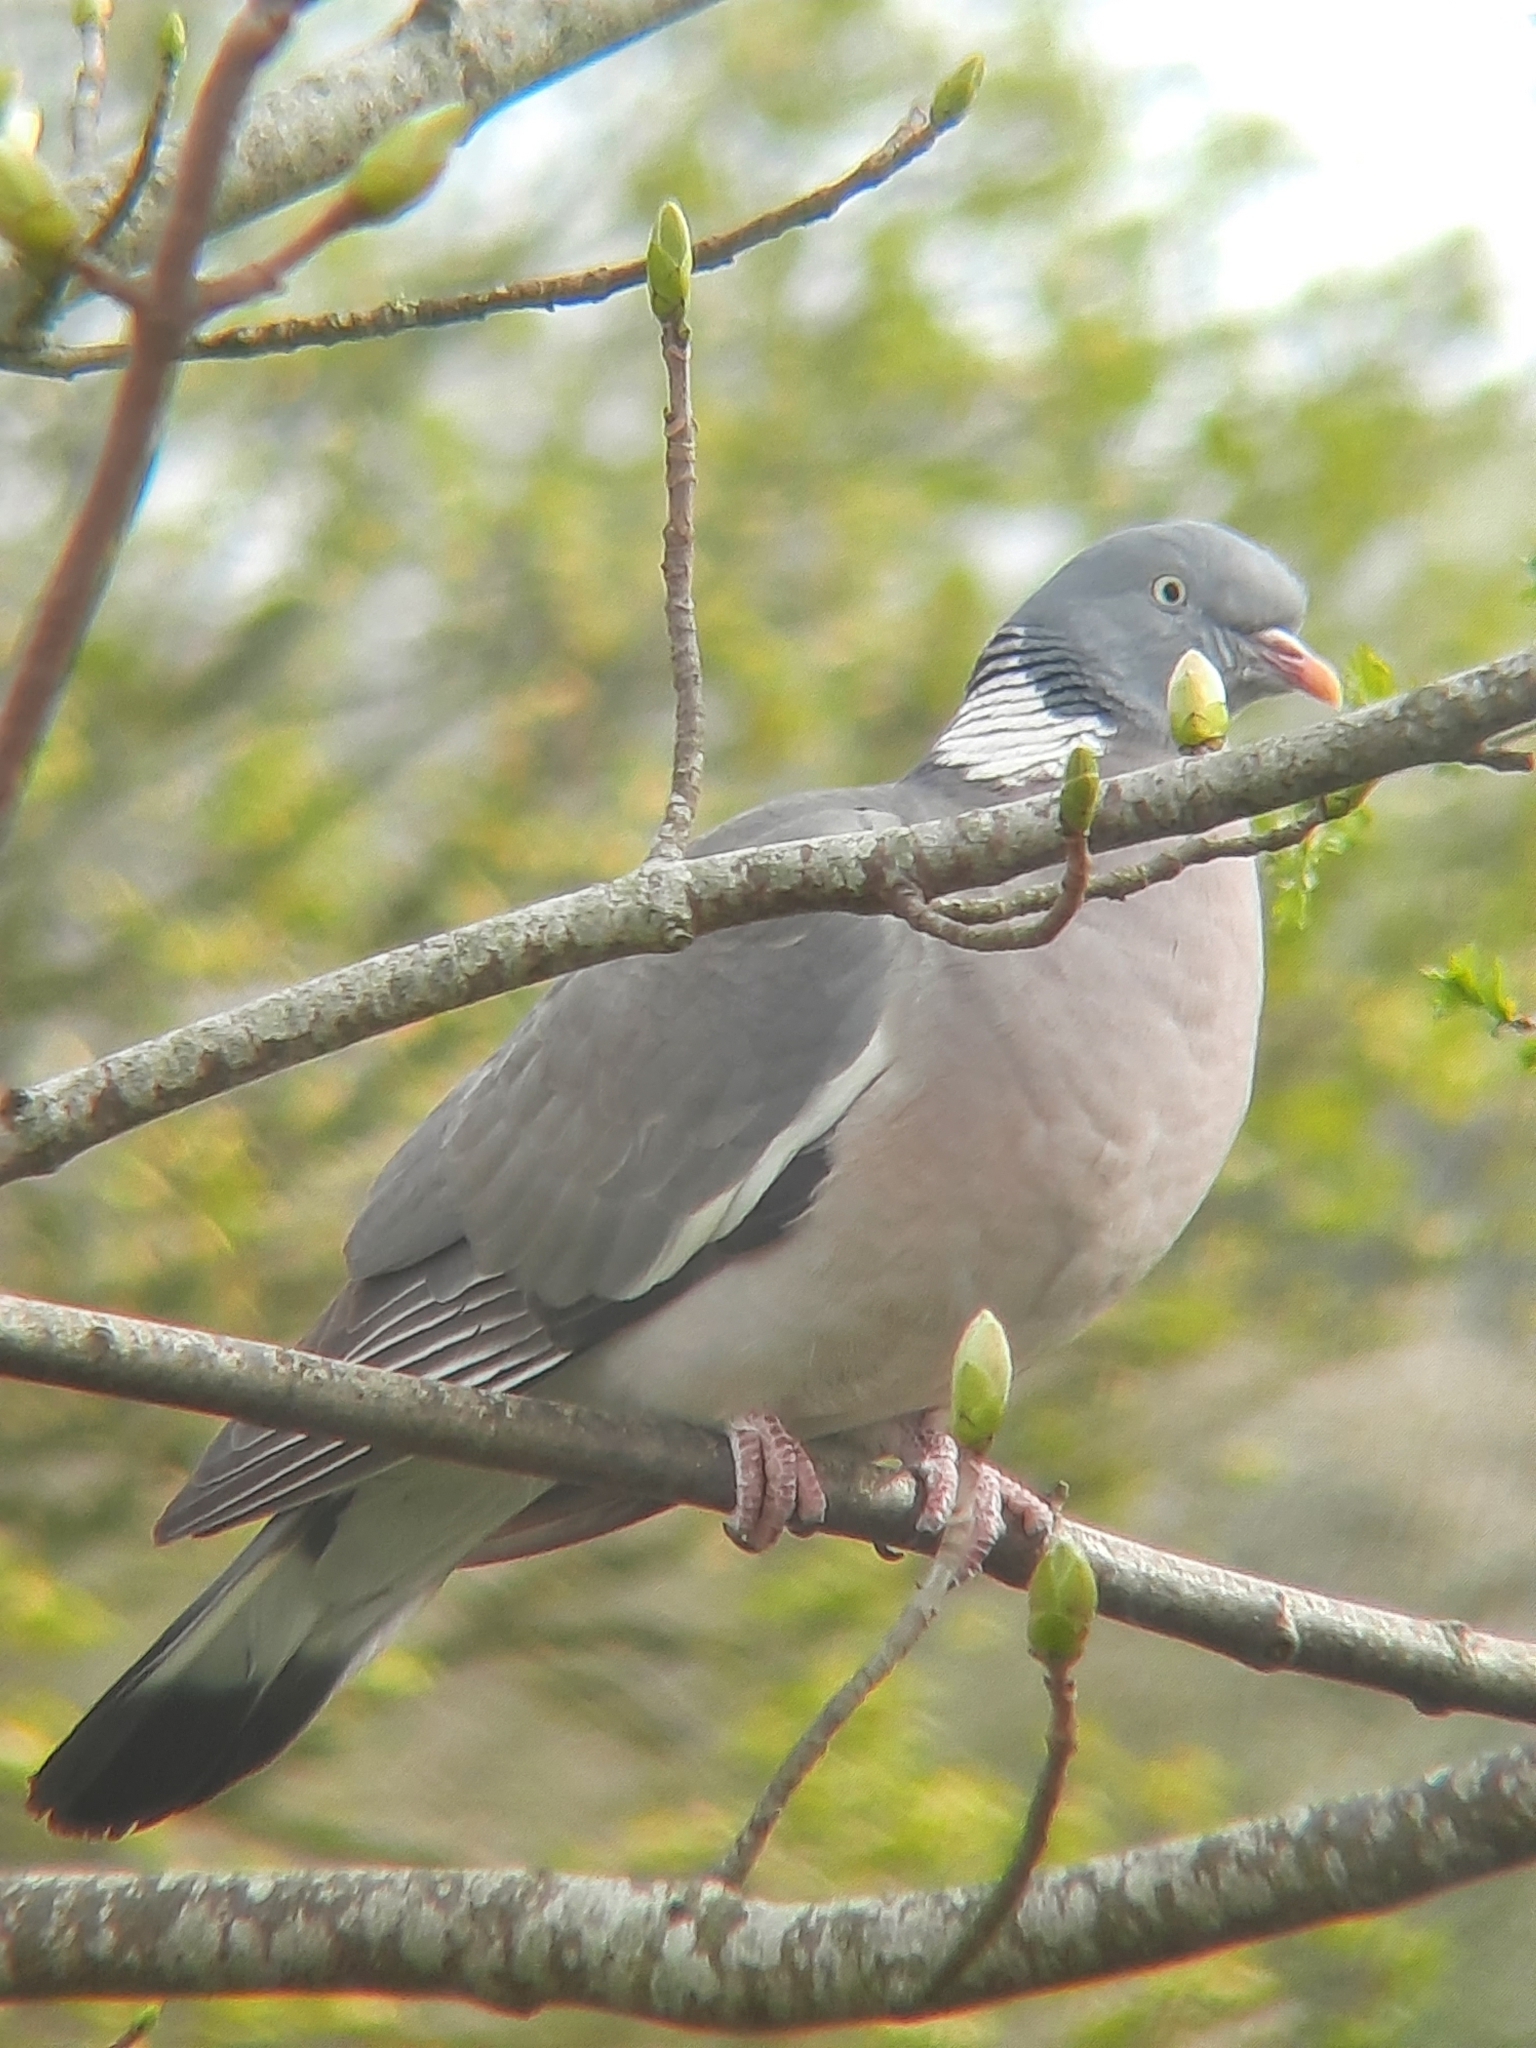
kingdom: Animalia
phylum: Chordata
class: Aves
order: Columbiformes
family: Columbidae
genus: Columba
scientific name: Columba palumbus
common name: Common wood pigeon
